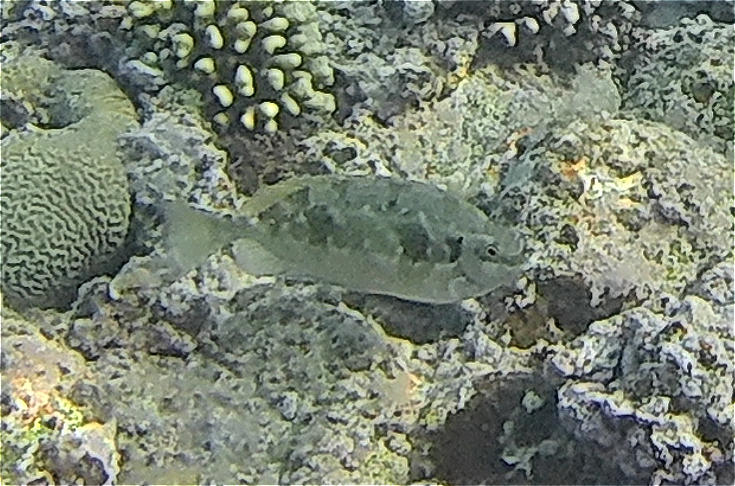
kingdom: Animalia
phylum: Chordata
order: Perciformes
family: Siganidae
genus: Siganus
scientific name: Siganus luridus
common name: Dusky spinefoot
